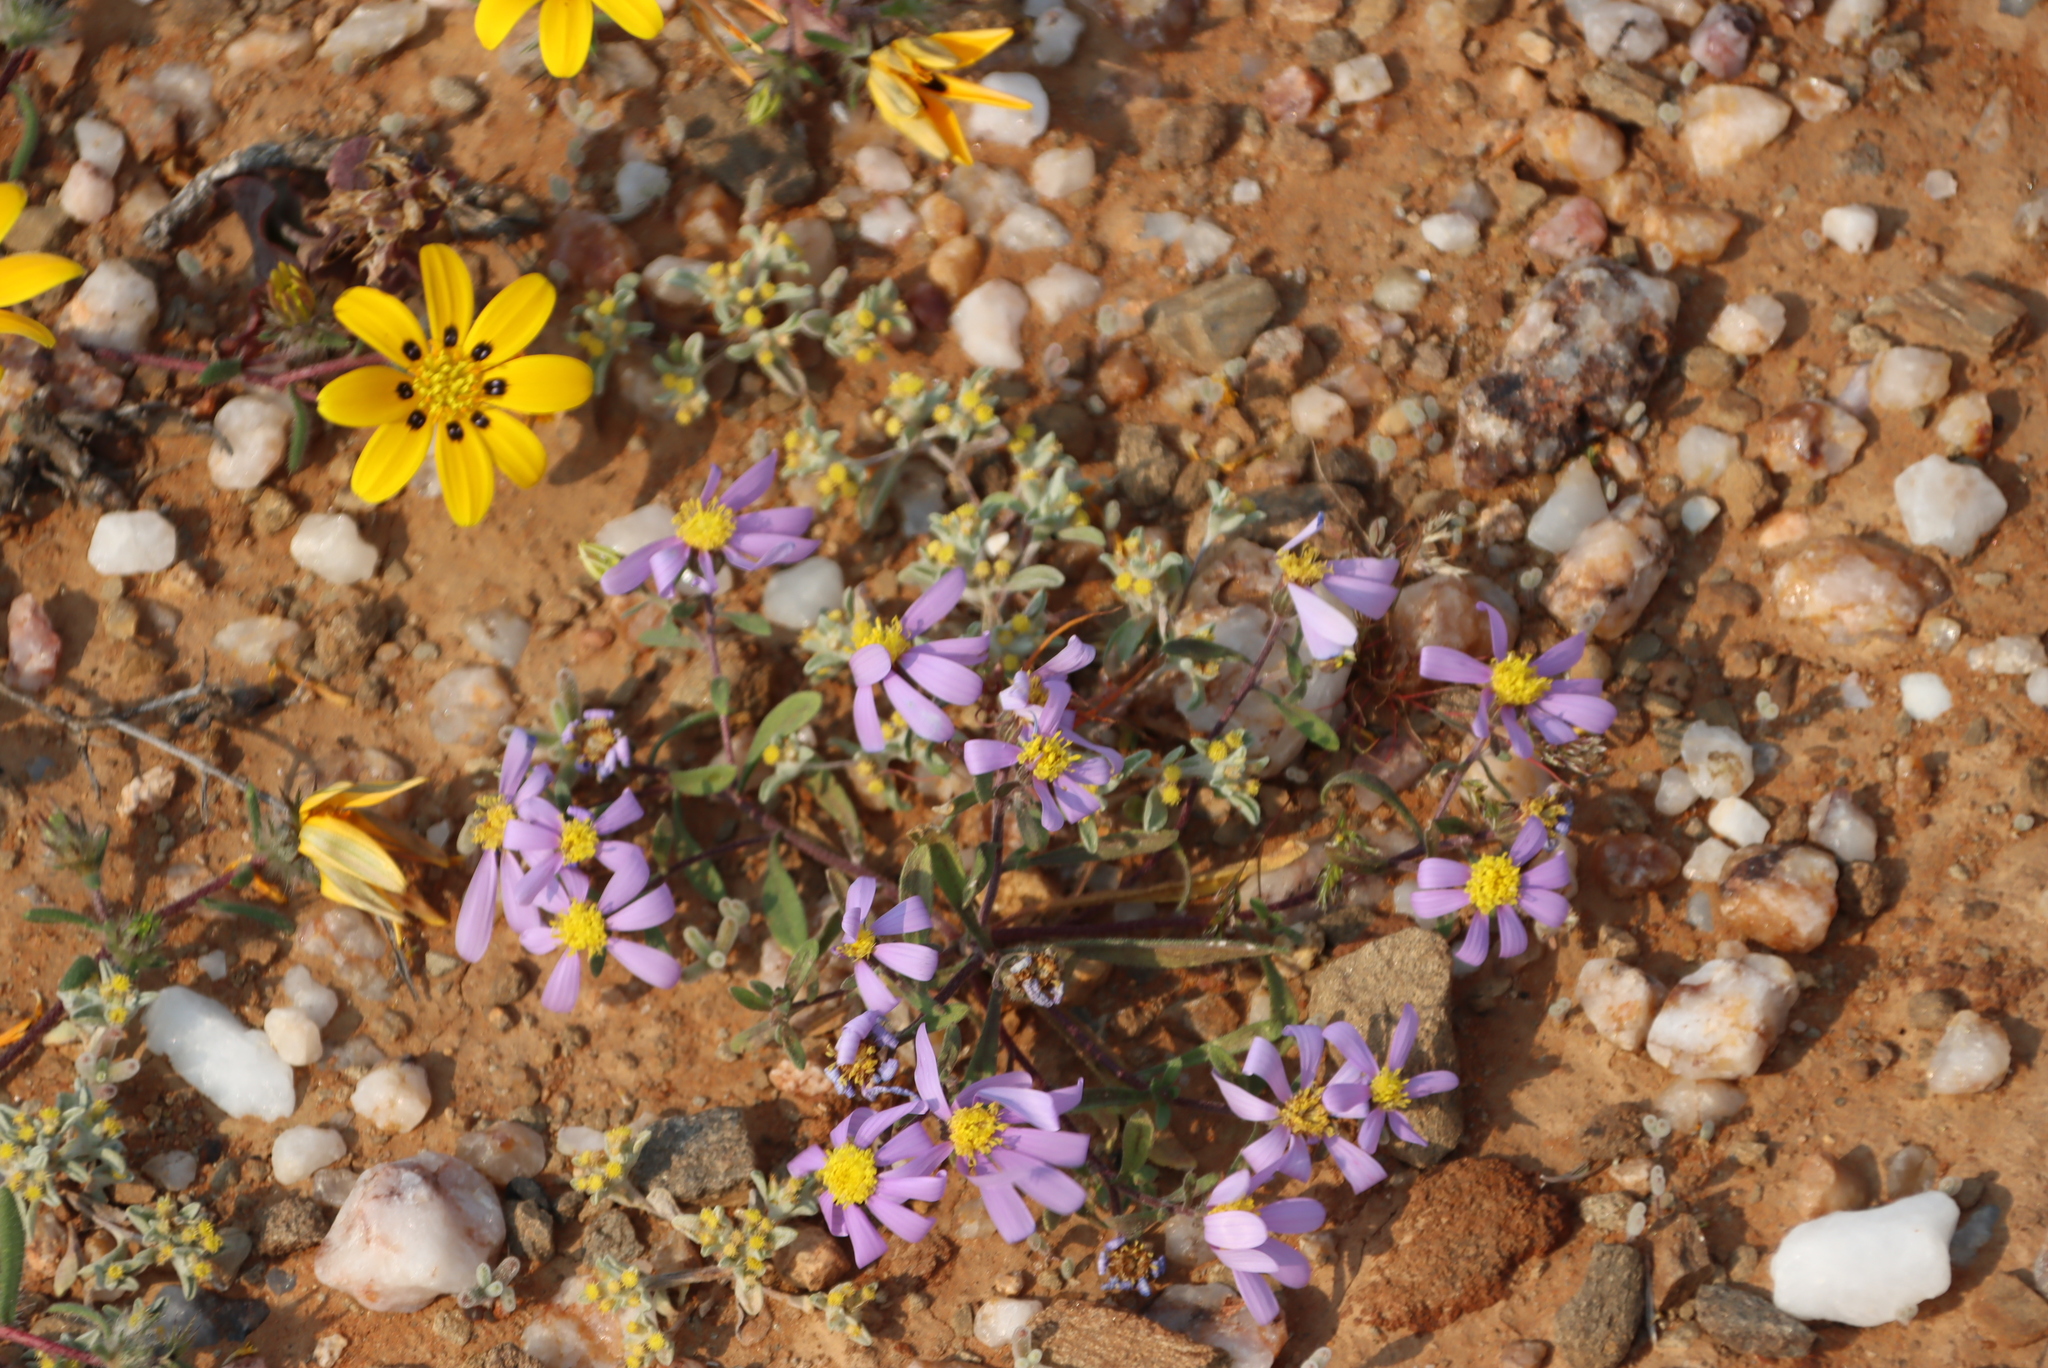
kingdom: Plantae
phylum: Tracheophyta
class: Magnoliopsida
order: Asterales
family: Asteraceae
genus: Helichrysum
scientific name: Helichrysum leontonyx
